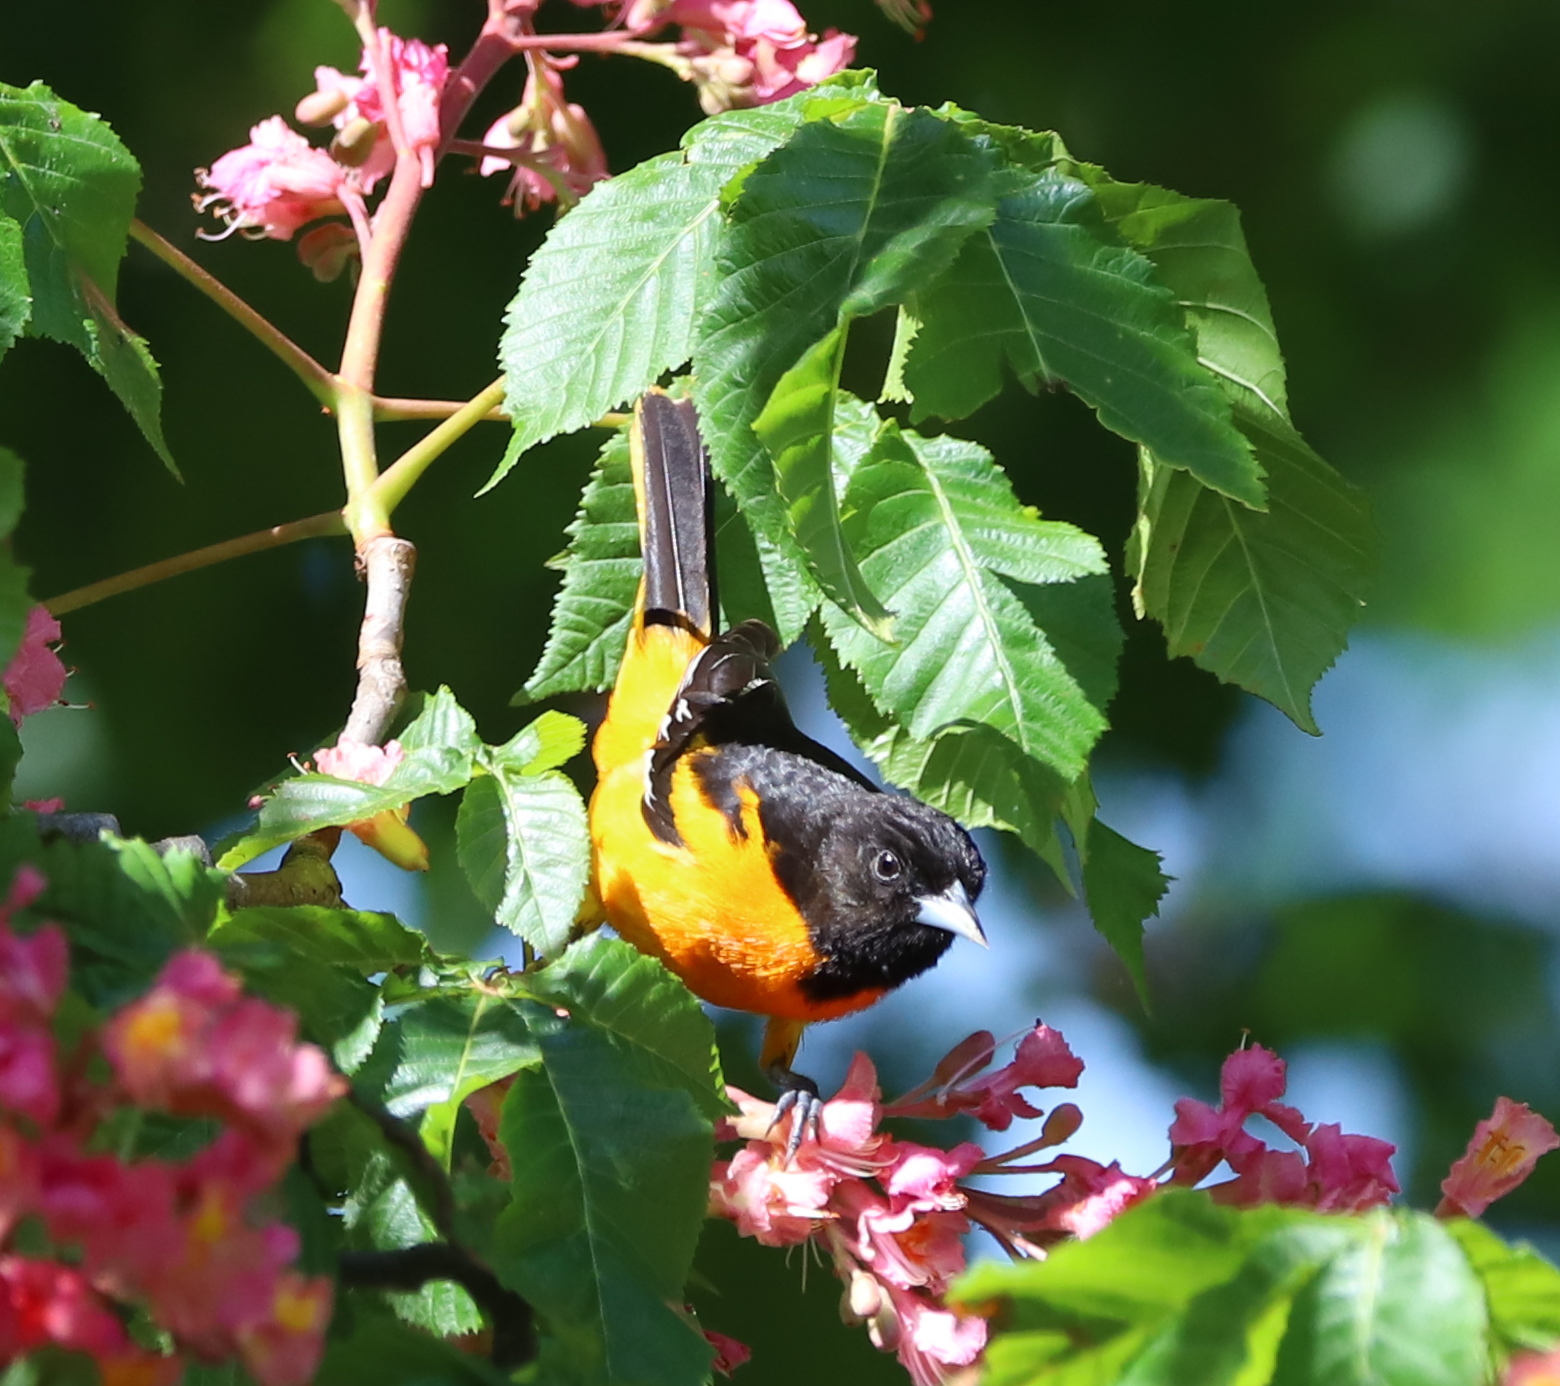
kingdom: Animalia
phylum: Chordata
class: Aves
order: Passeriformes
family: Icteridae
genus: Icterus
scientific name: Icterus galbula
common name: Baltimore oriole
